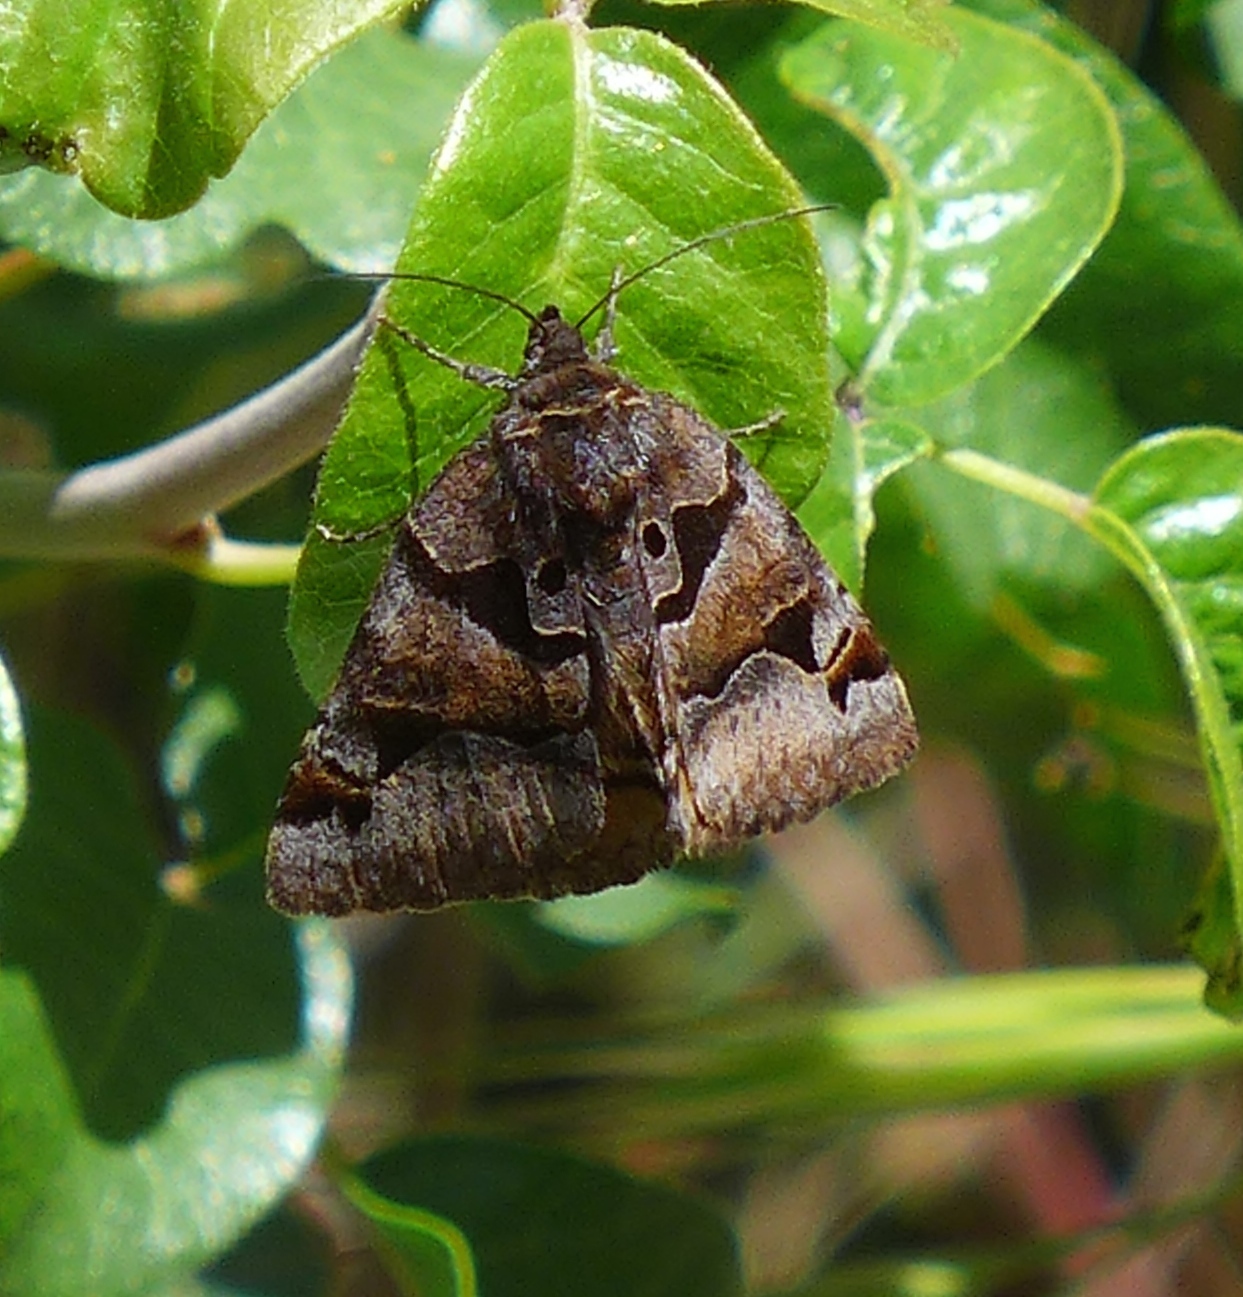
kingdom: Animalia
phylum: Arthropoda
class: Insecta
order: Lepidoptera
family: Erebidae
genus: Euclidia
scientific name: Euclidia ardita
